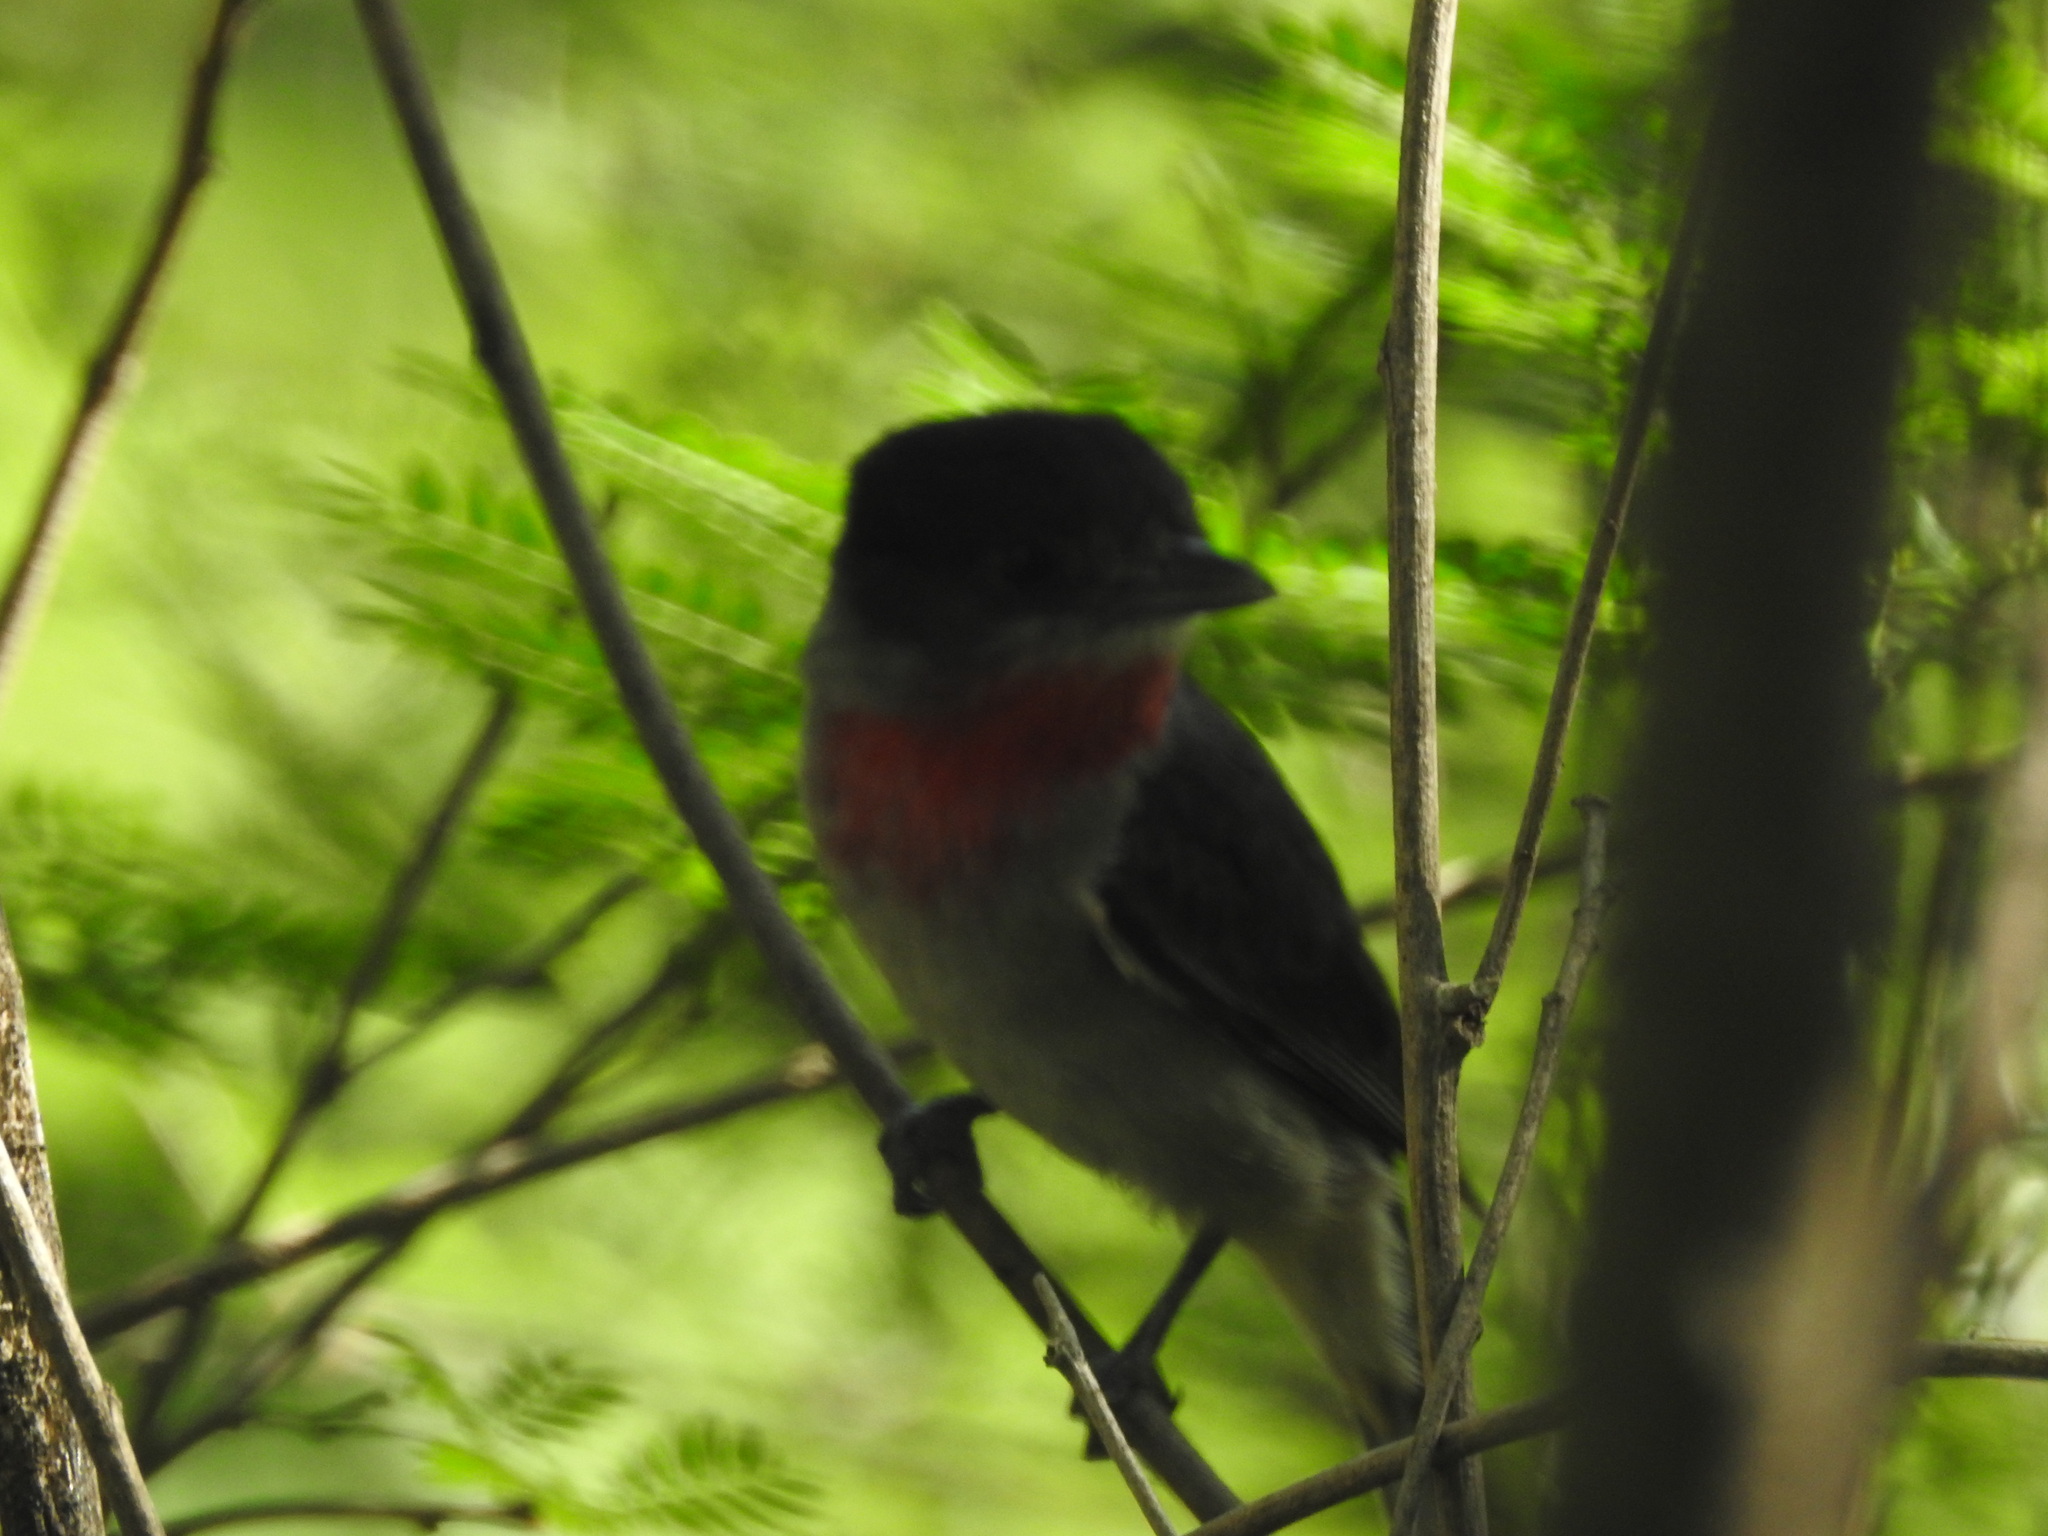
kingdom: Animalia
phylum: Chordata
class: Aves
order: Passeriformes
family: Cotingidae
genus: Pachyramphus
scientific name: Pachyramphus aglaiae
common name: Rose-throated becard
